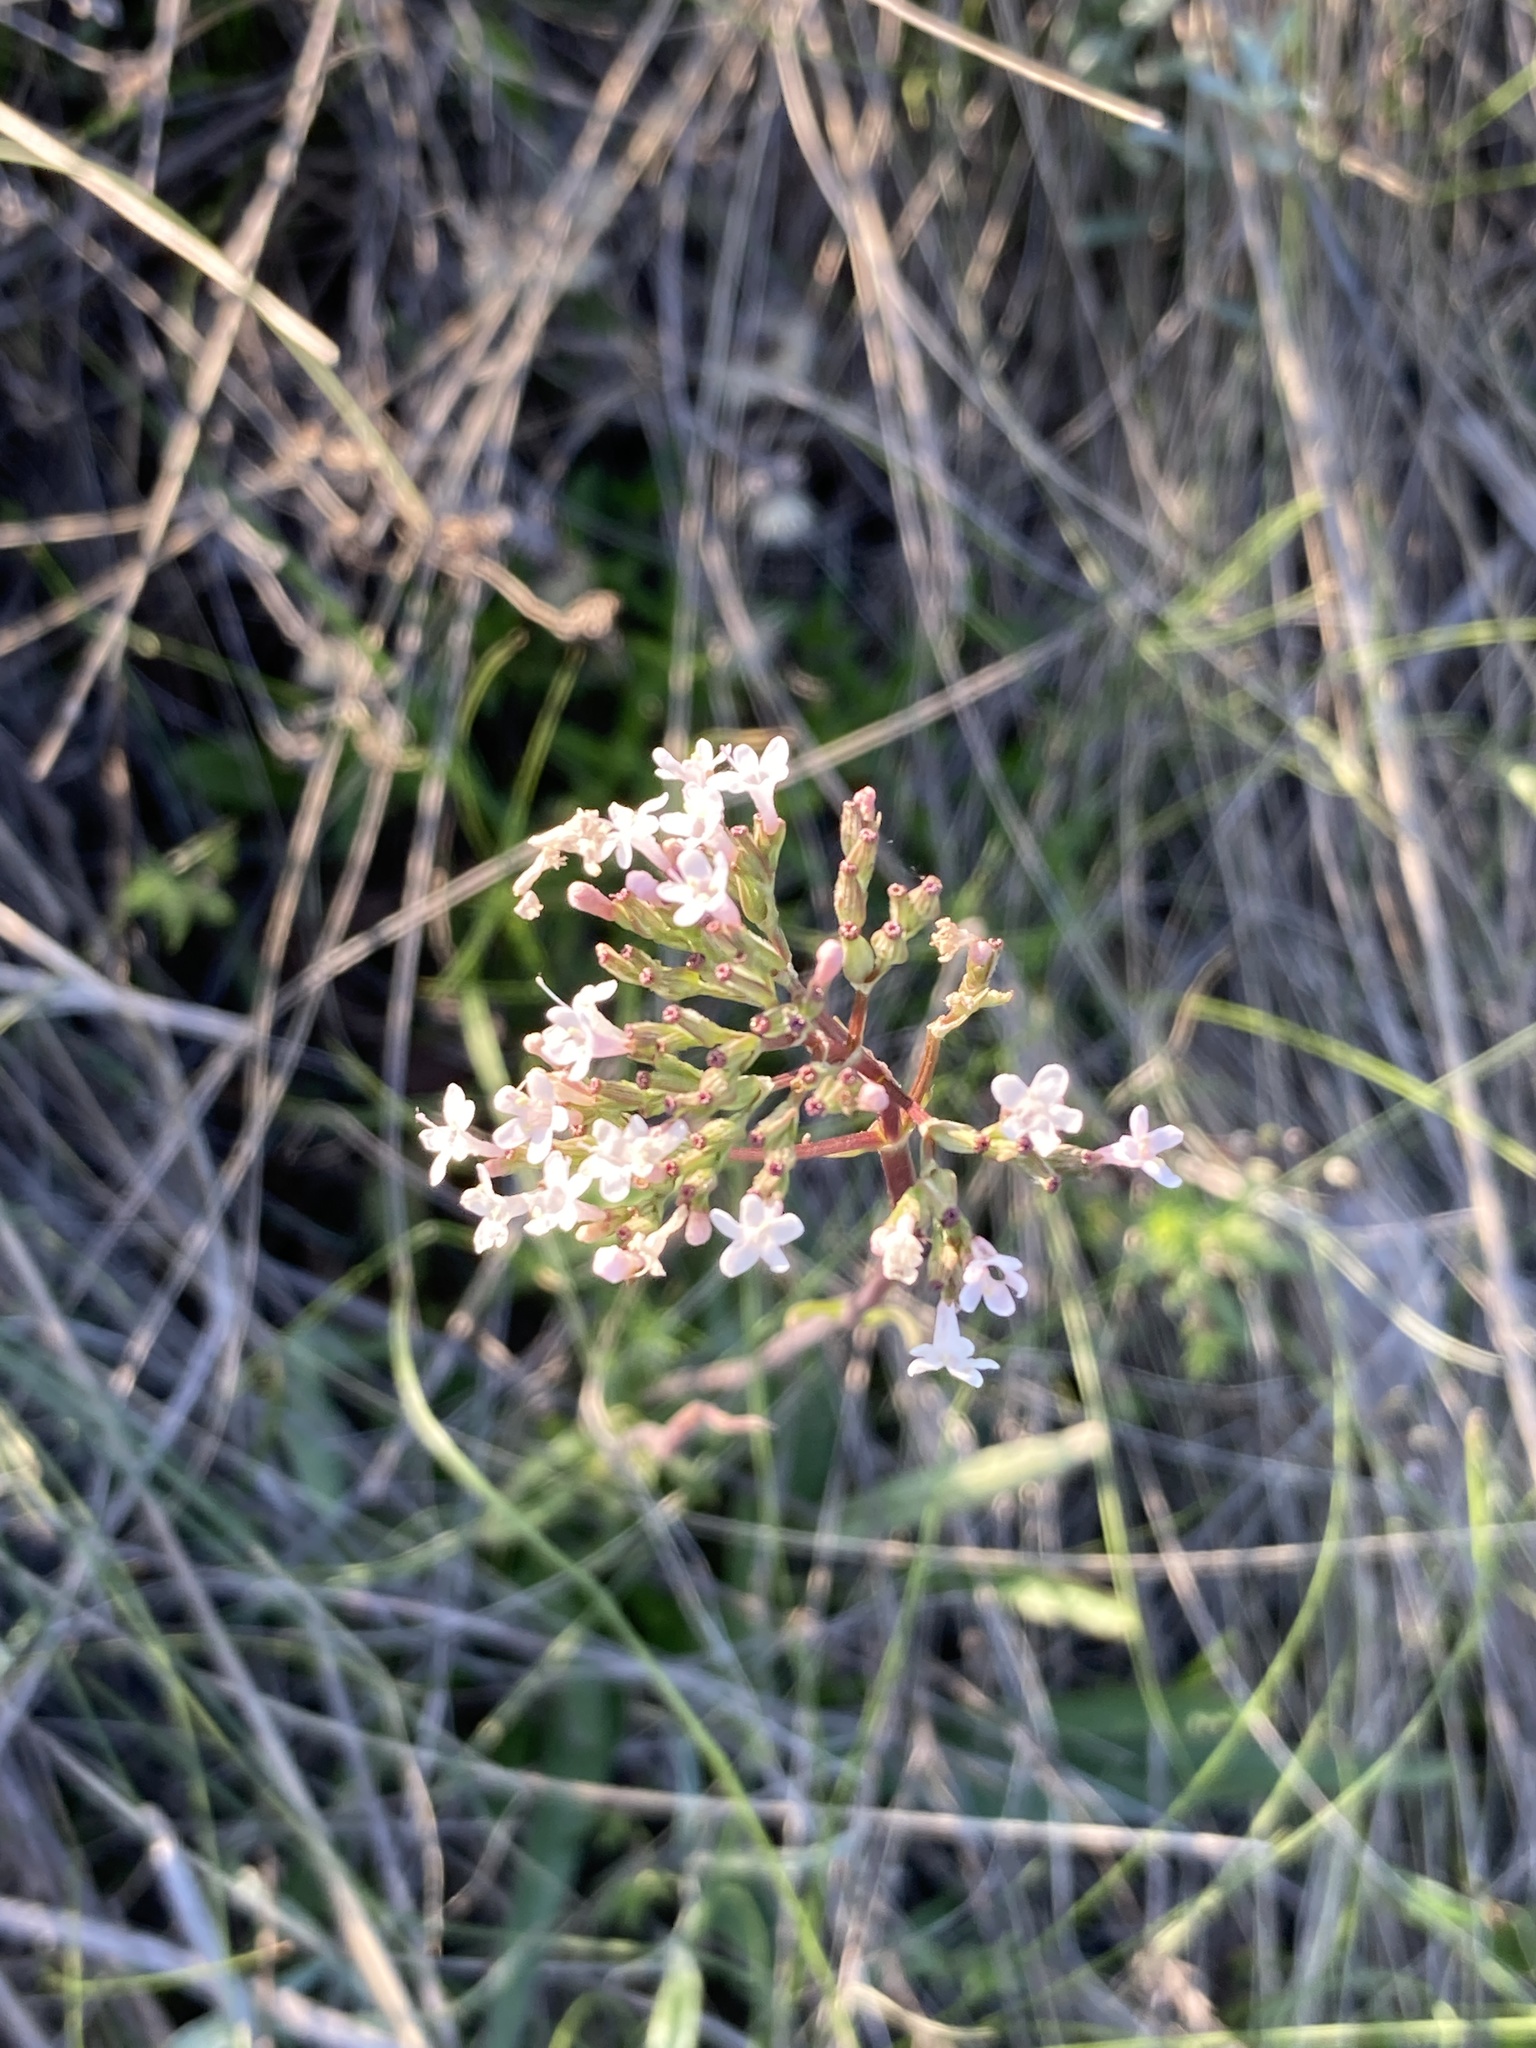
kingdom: Plantae
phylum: Tracheophyta
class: Magnoliopsida
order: Dipsacales
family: Caprifoliaceae
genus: Valeriana
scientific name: Valeriana tuberosa
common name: Tuberous valerian
